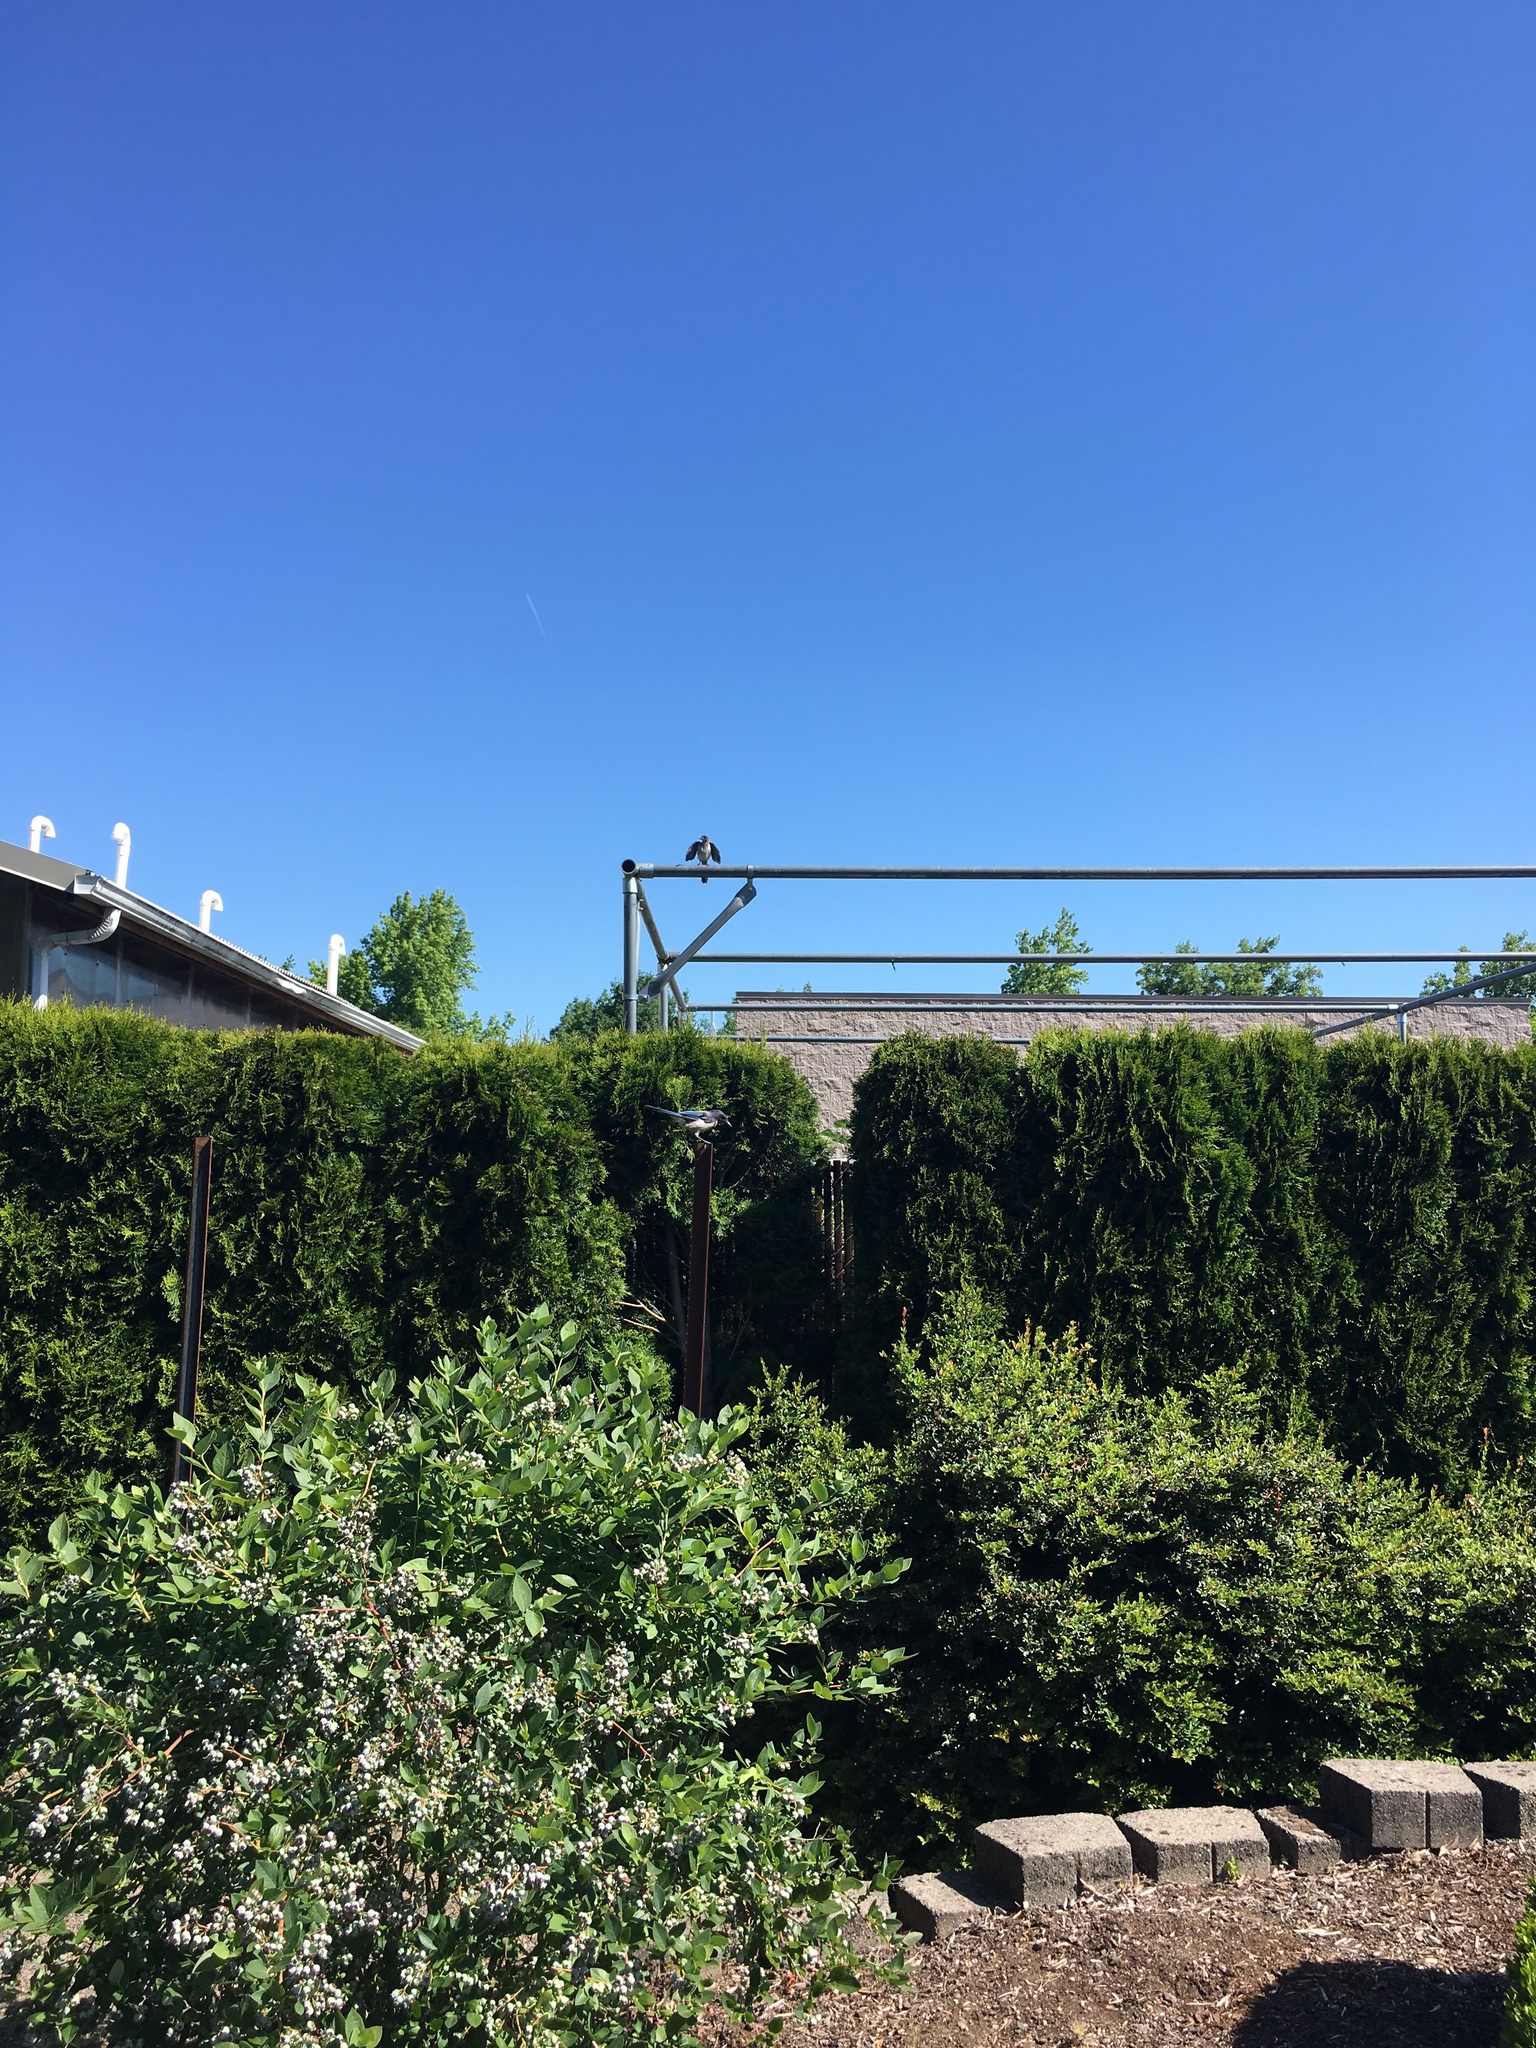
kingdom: Animalia
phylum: Chordata
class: Aves
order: Passeriformes
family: Corvidae
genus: Aphelocoma
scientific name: Aphelocoma californica
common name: California scrub-jay
